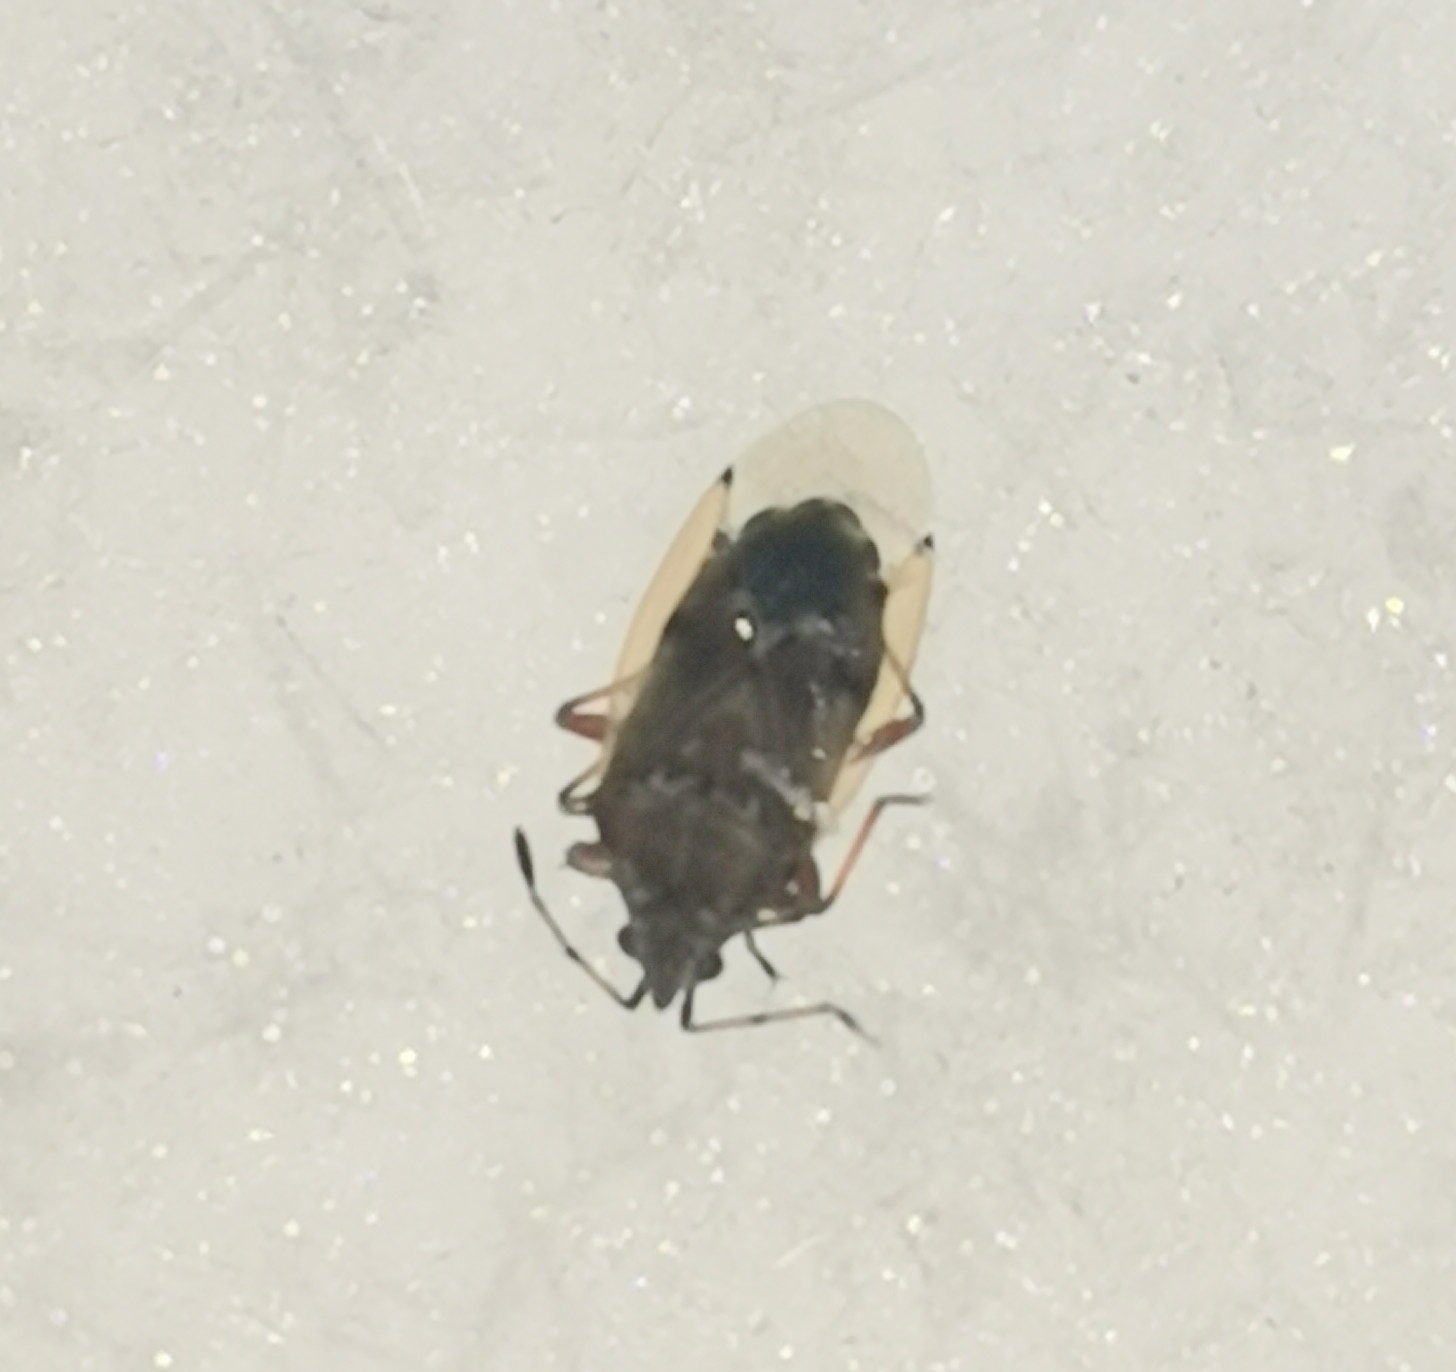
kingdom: Animalia
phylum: Arthropoda
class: Insecta
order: Hemiptera
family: Lygaeidae
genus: Kleidocerys
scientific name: Kleidocerys resedae
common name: Birch catkin bug
